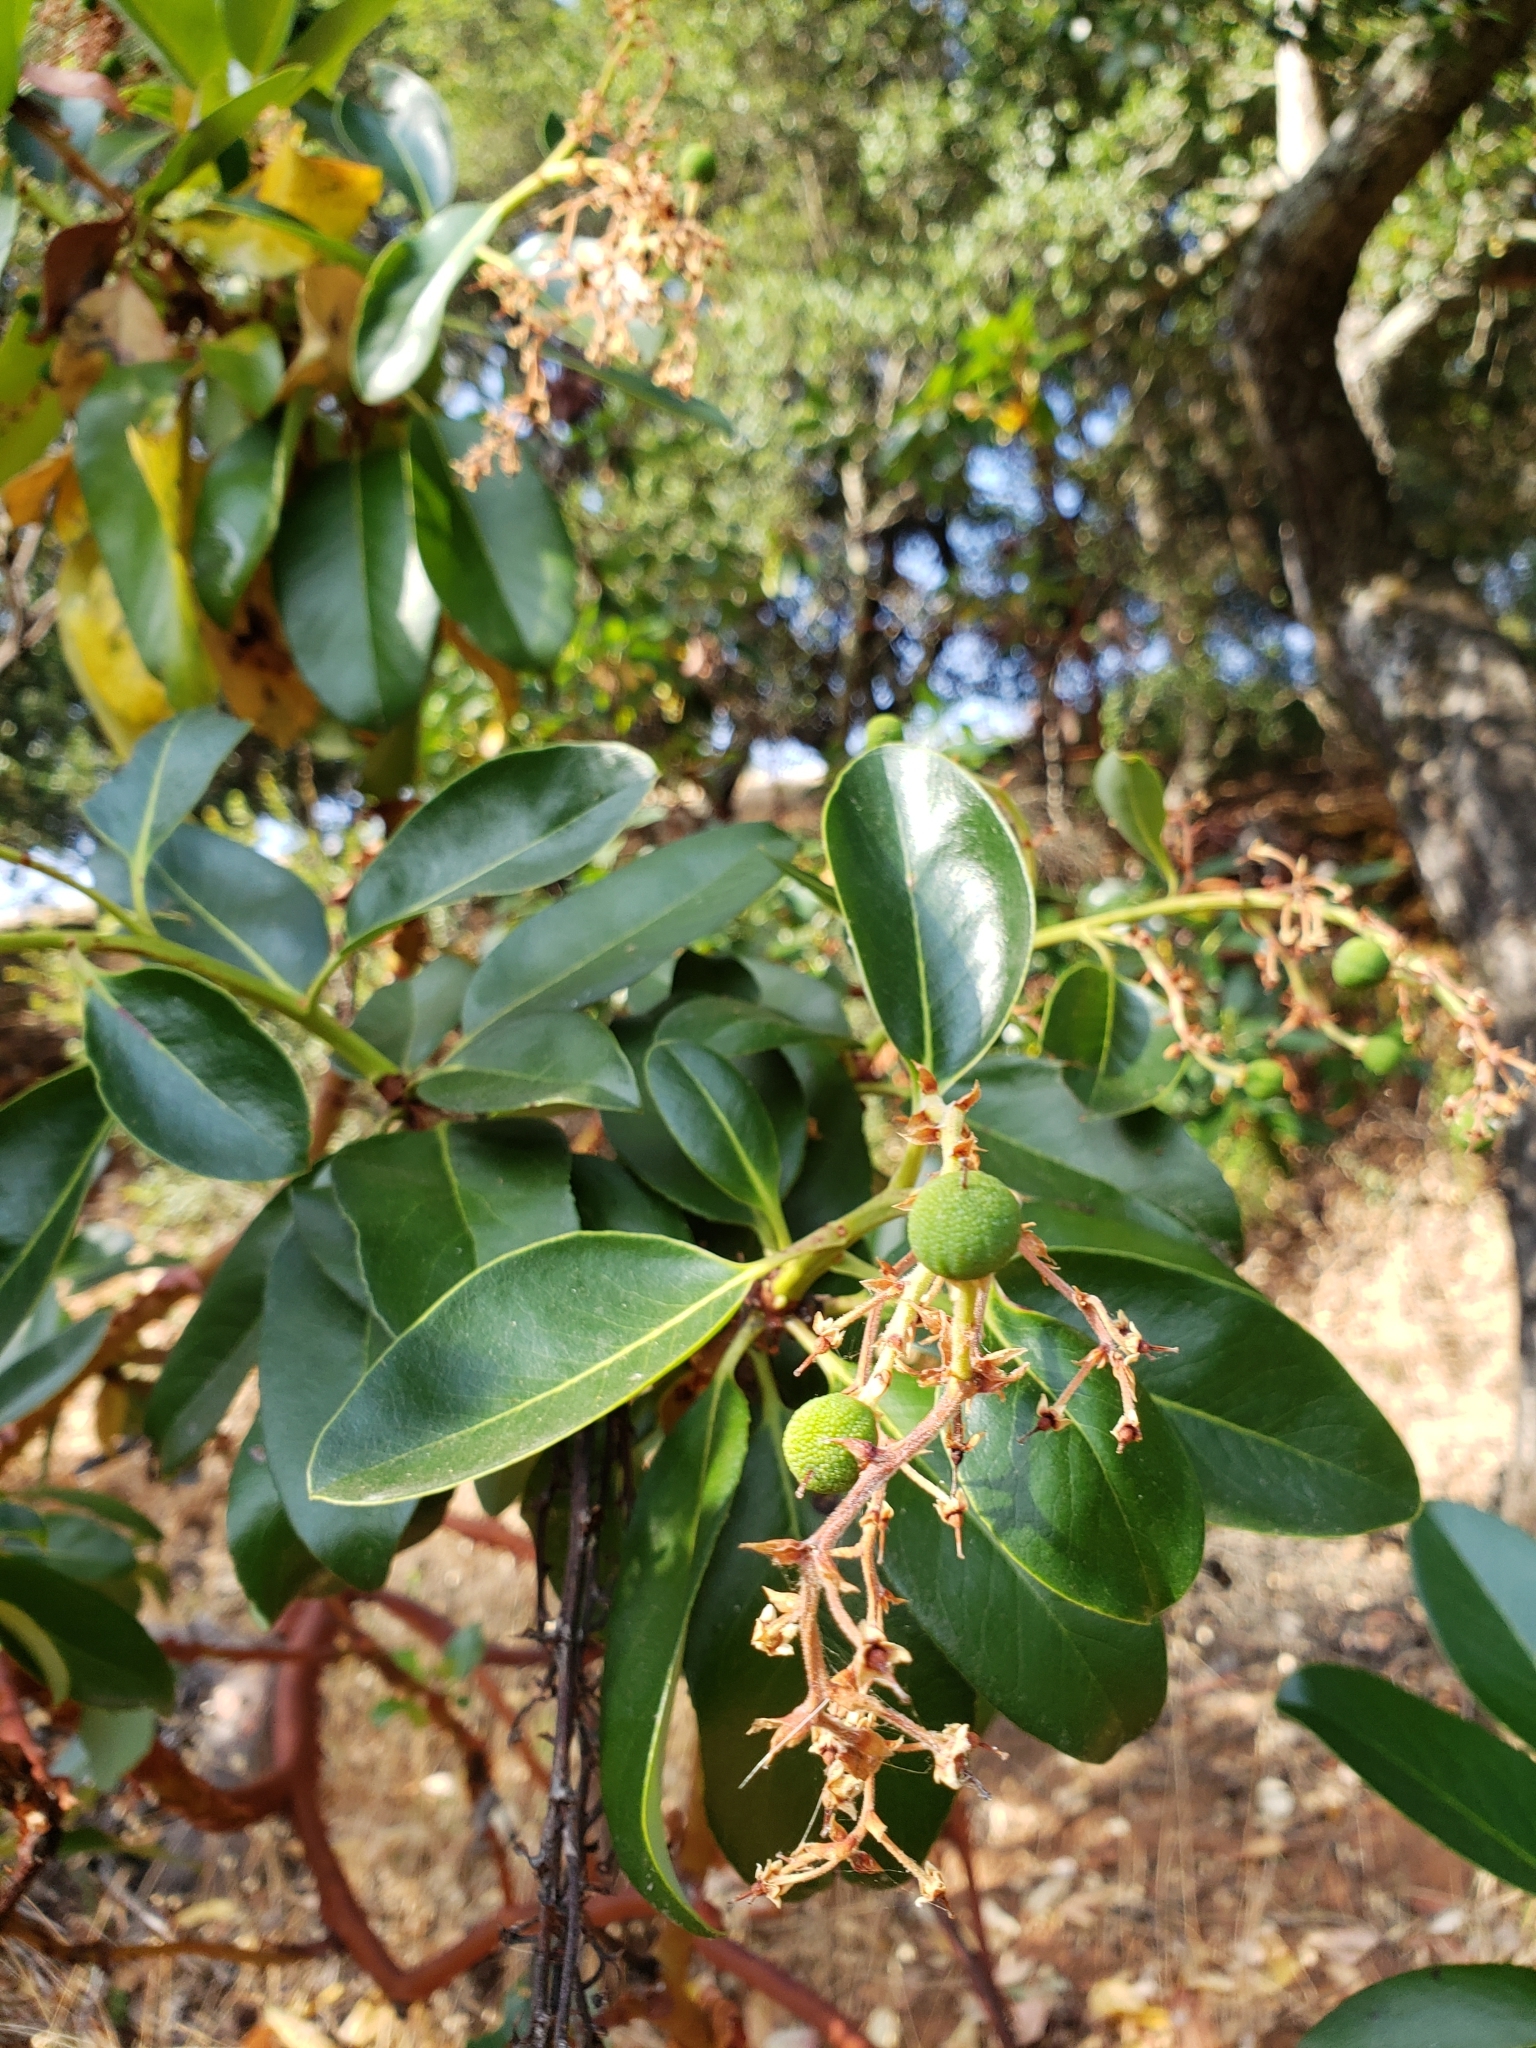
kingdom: Plantae
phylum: Tracheophyta
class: Magnoliopsida
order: Ericales
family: Ericaceae
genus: Arbutus
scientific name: Arbutus menziesii
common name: Pacific madrone
